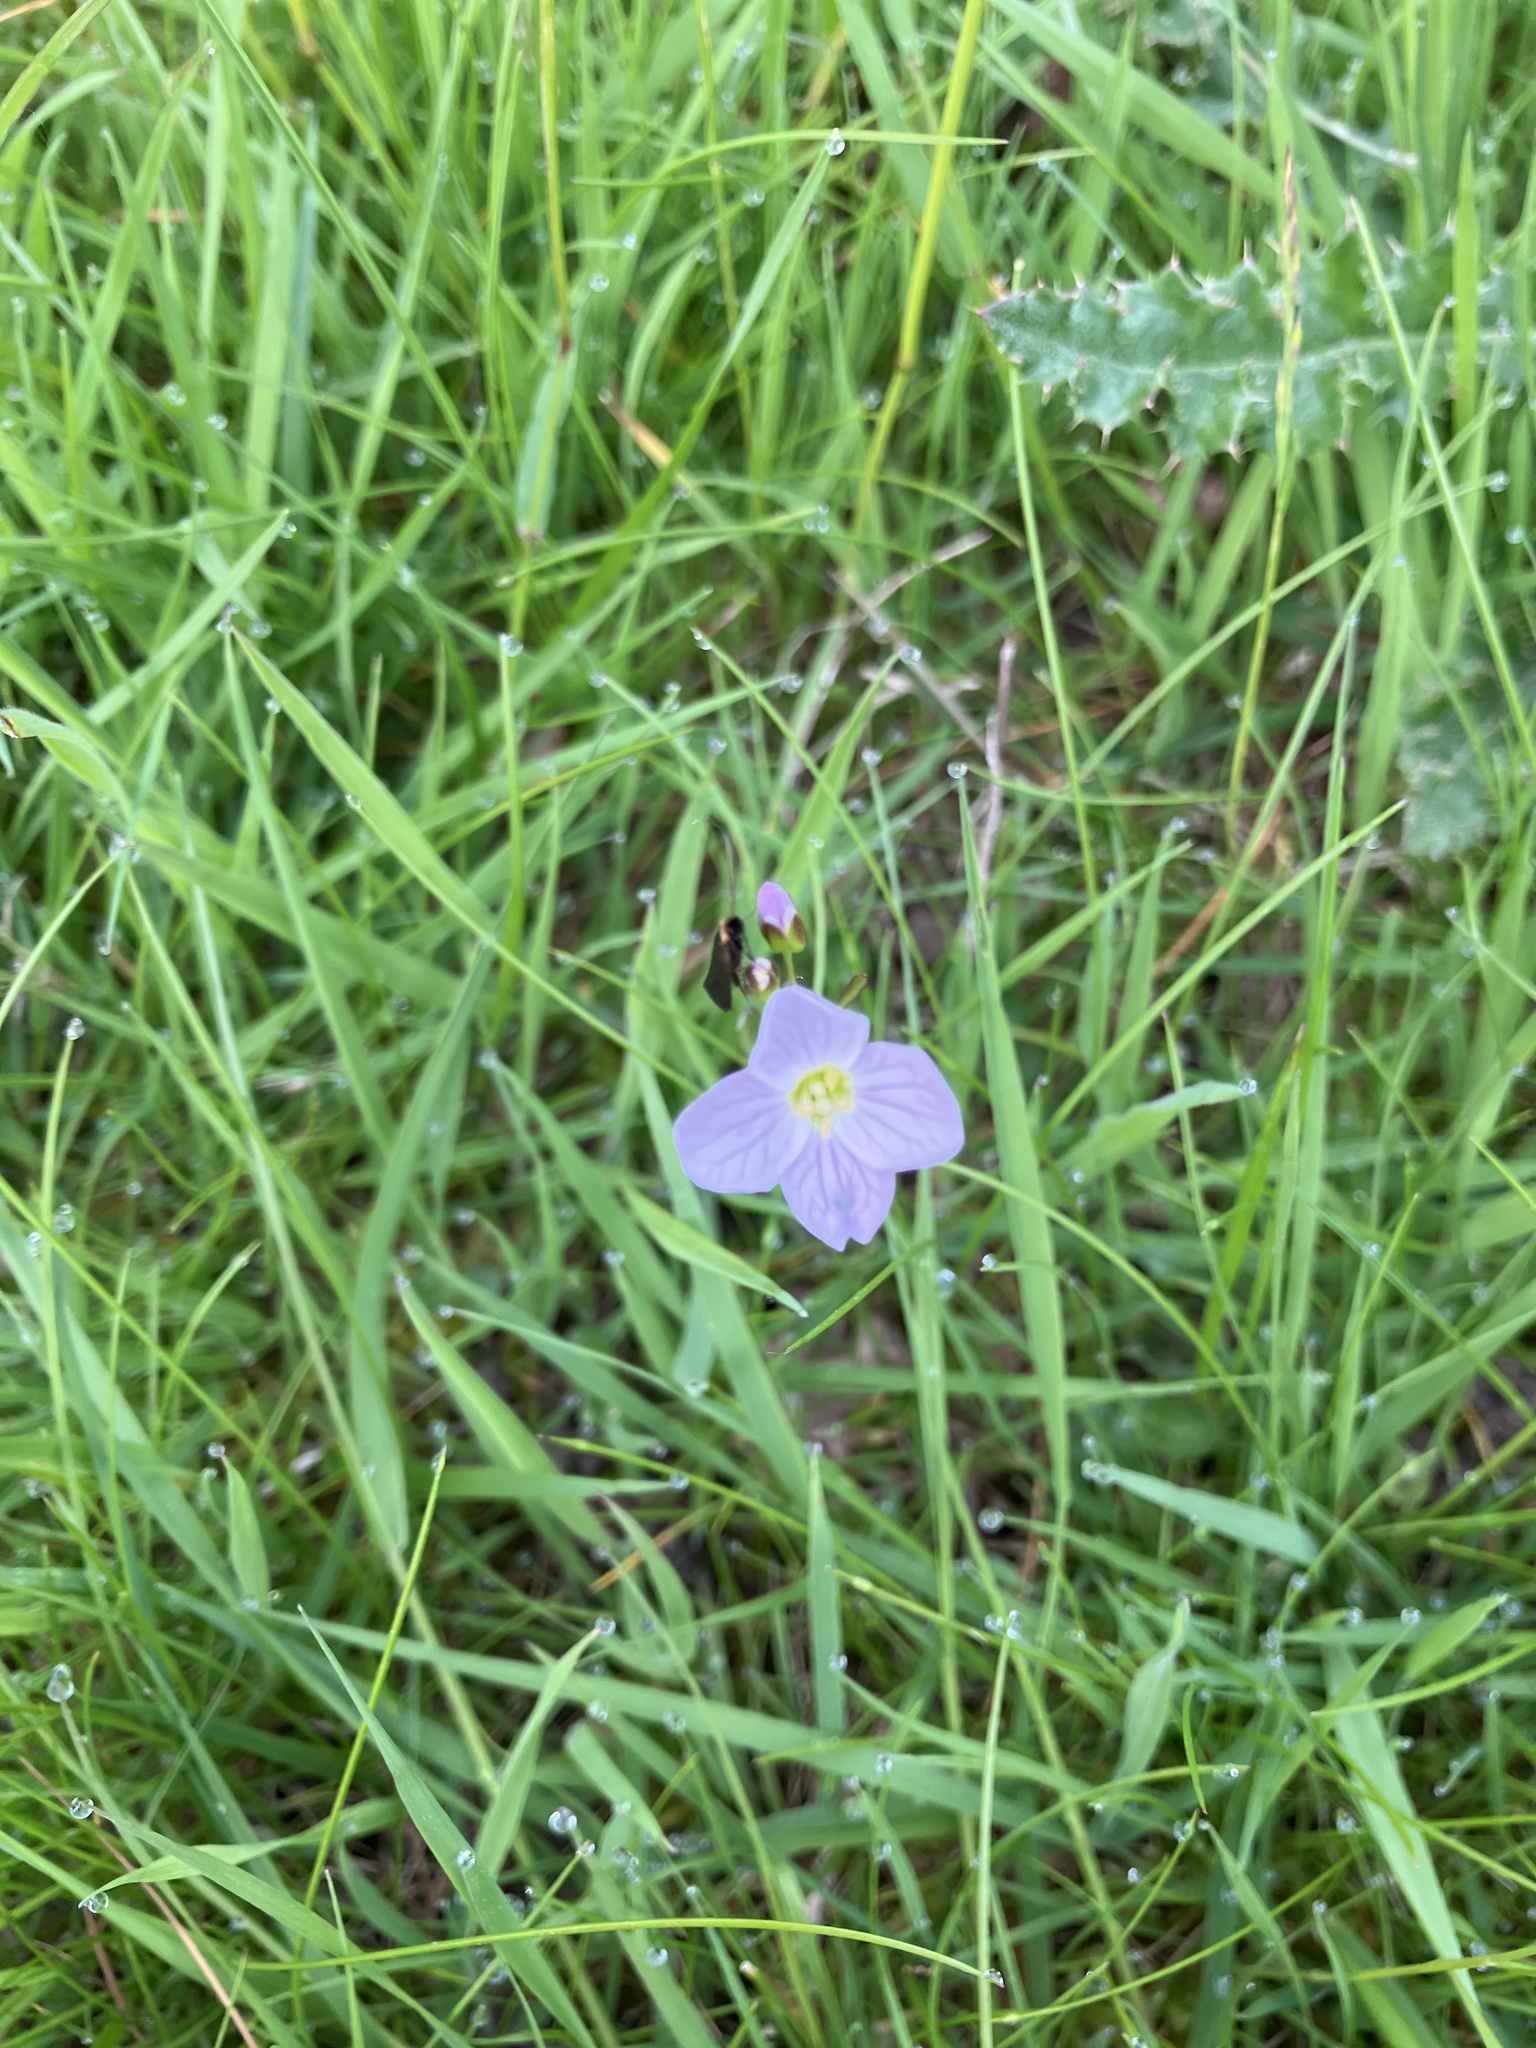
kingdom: Plantae
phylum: Tracheophyta
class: Magnoliopsida
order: Brassicales
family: Brassicaceae
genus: Cardamine
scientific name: Cardamine pratensis
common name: Cuckoo flower
